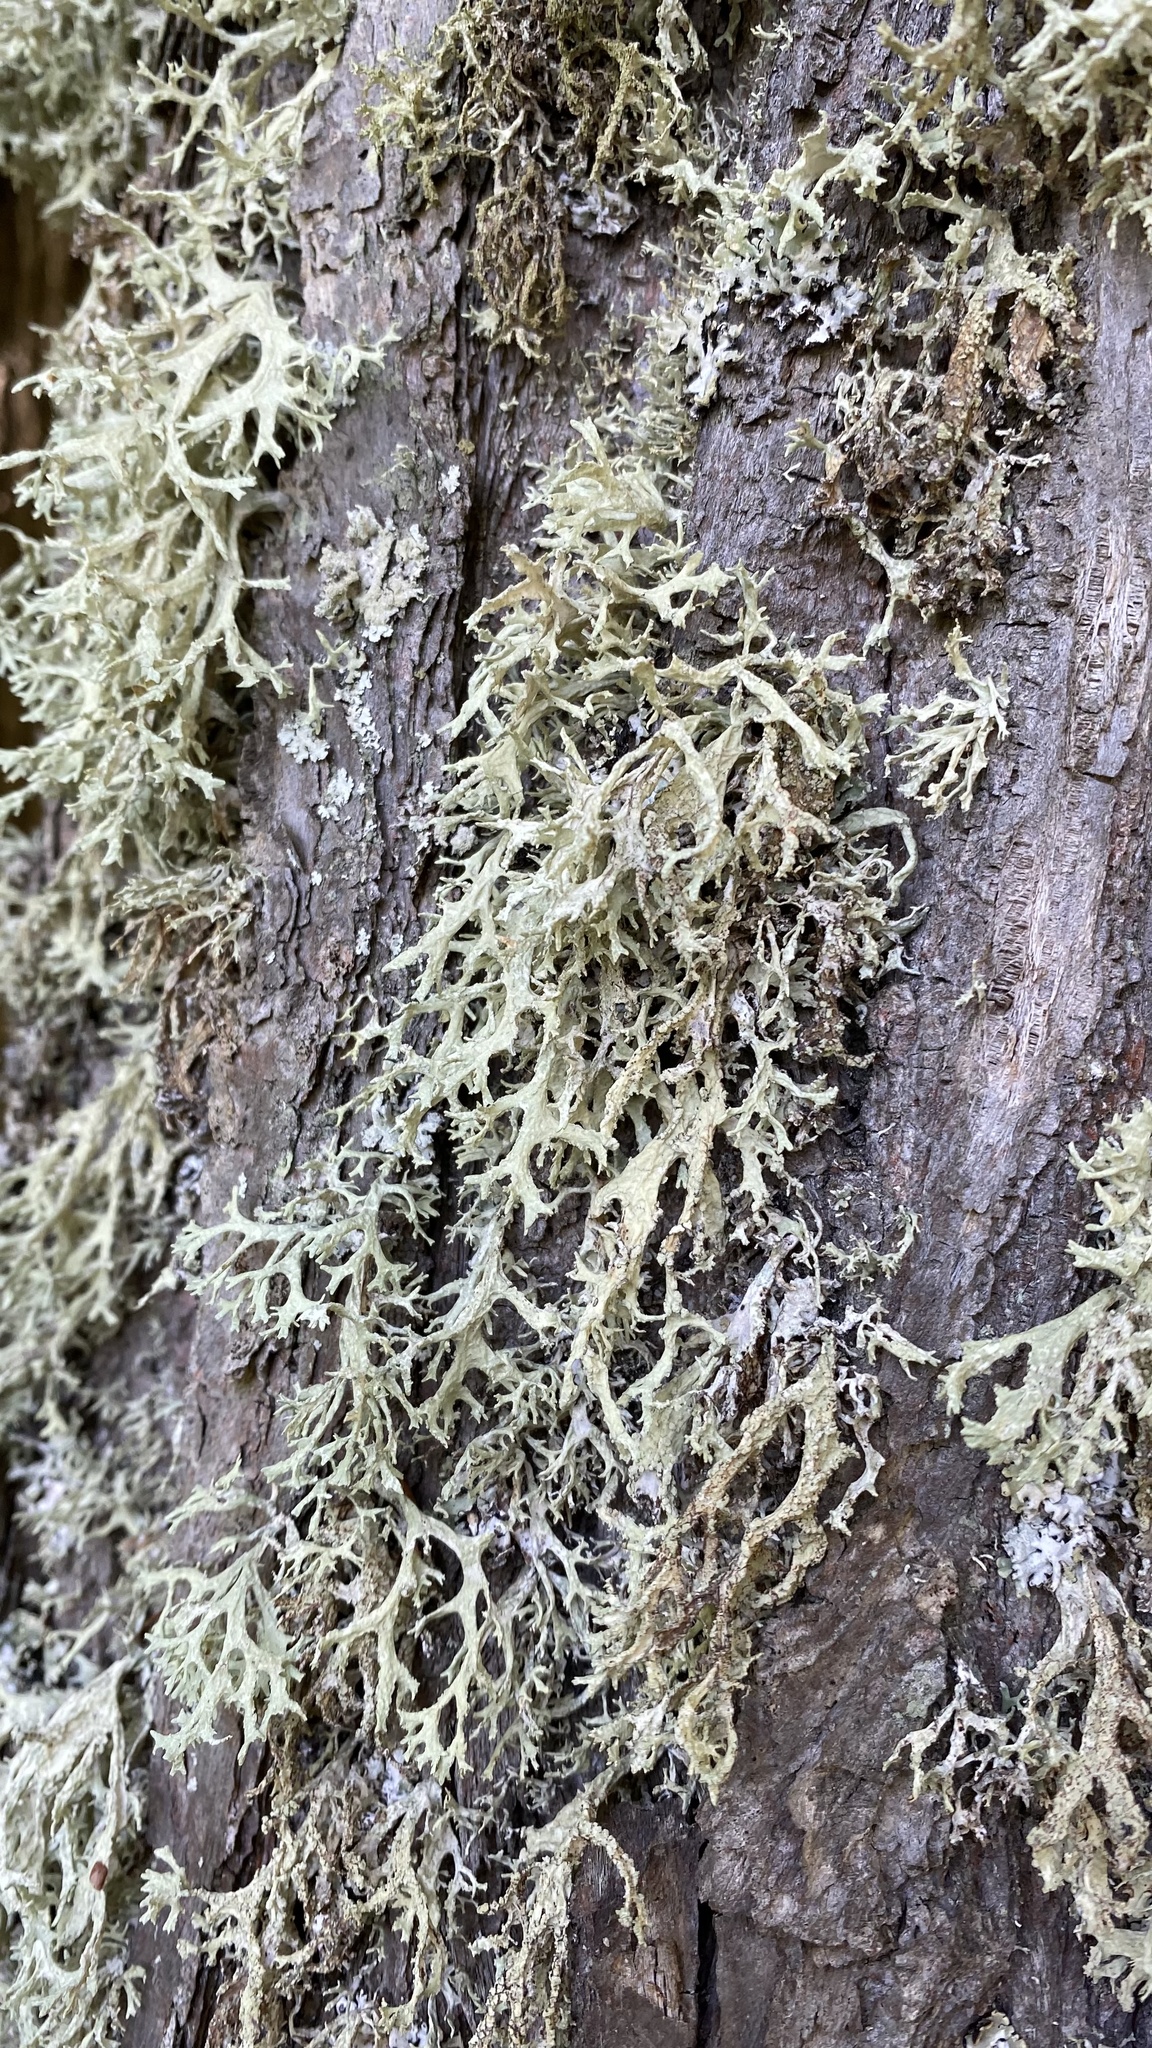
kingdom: Fungi
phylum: Ascomycota
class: Lecanoromycetes
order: Lecanorales
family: Parmeliaceae
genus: Evernia
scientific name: Evernia prunastri
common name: Oak moss
